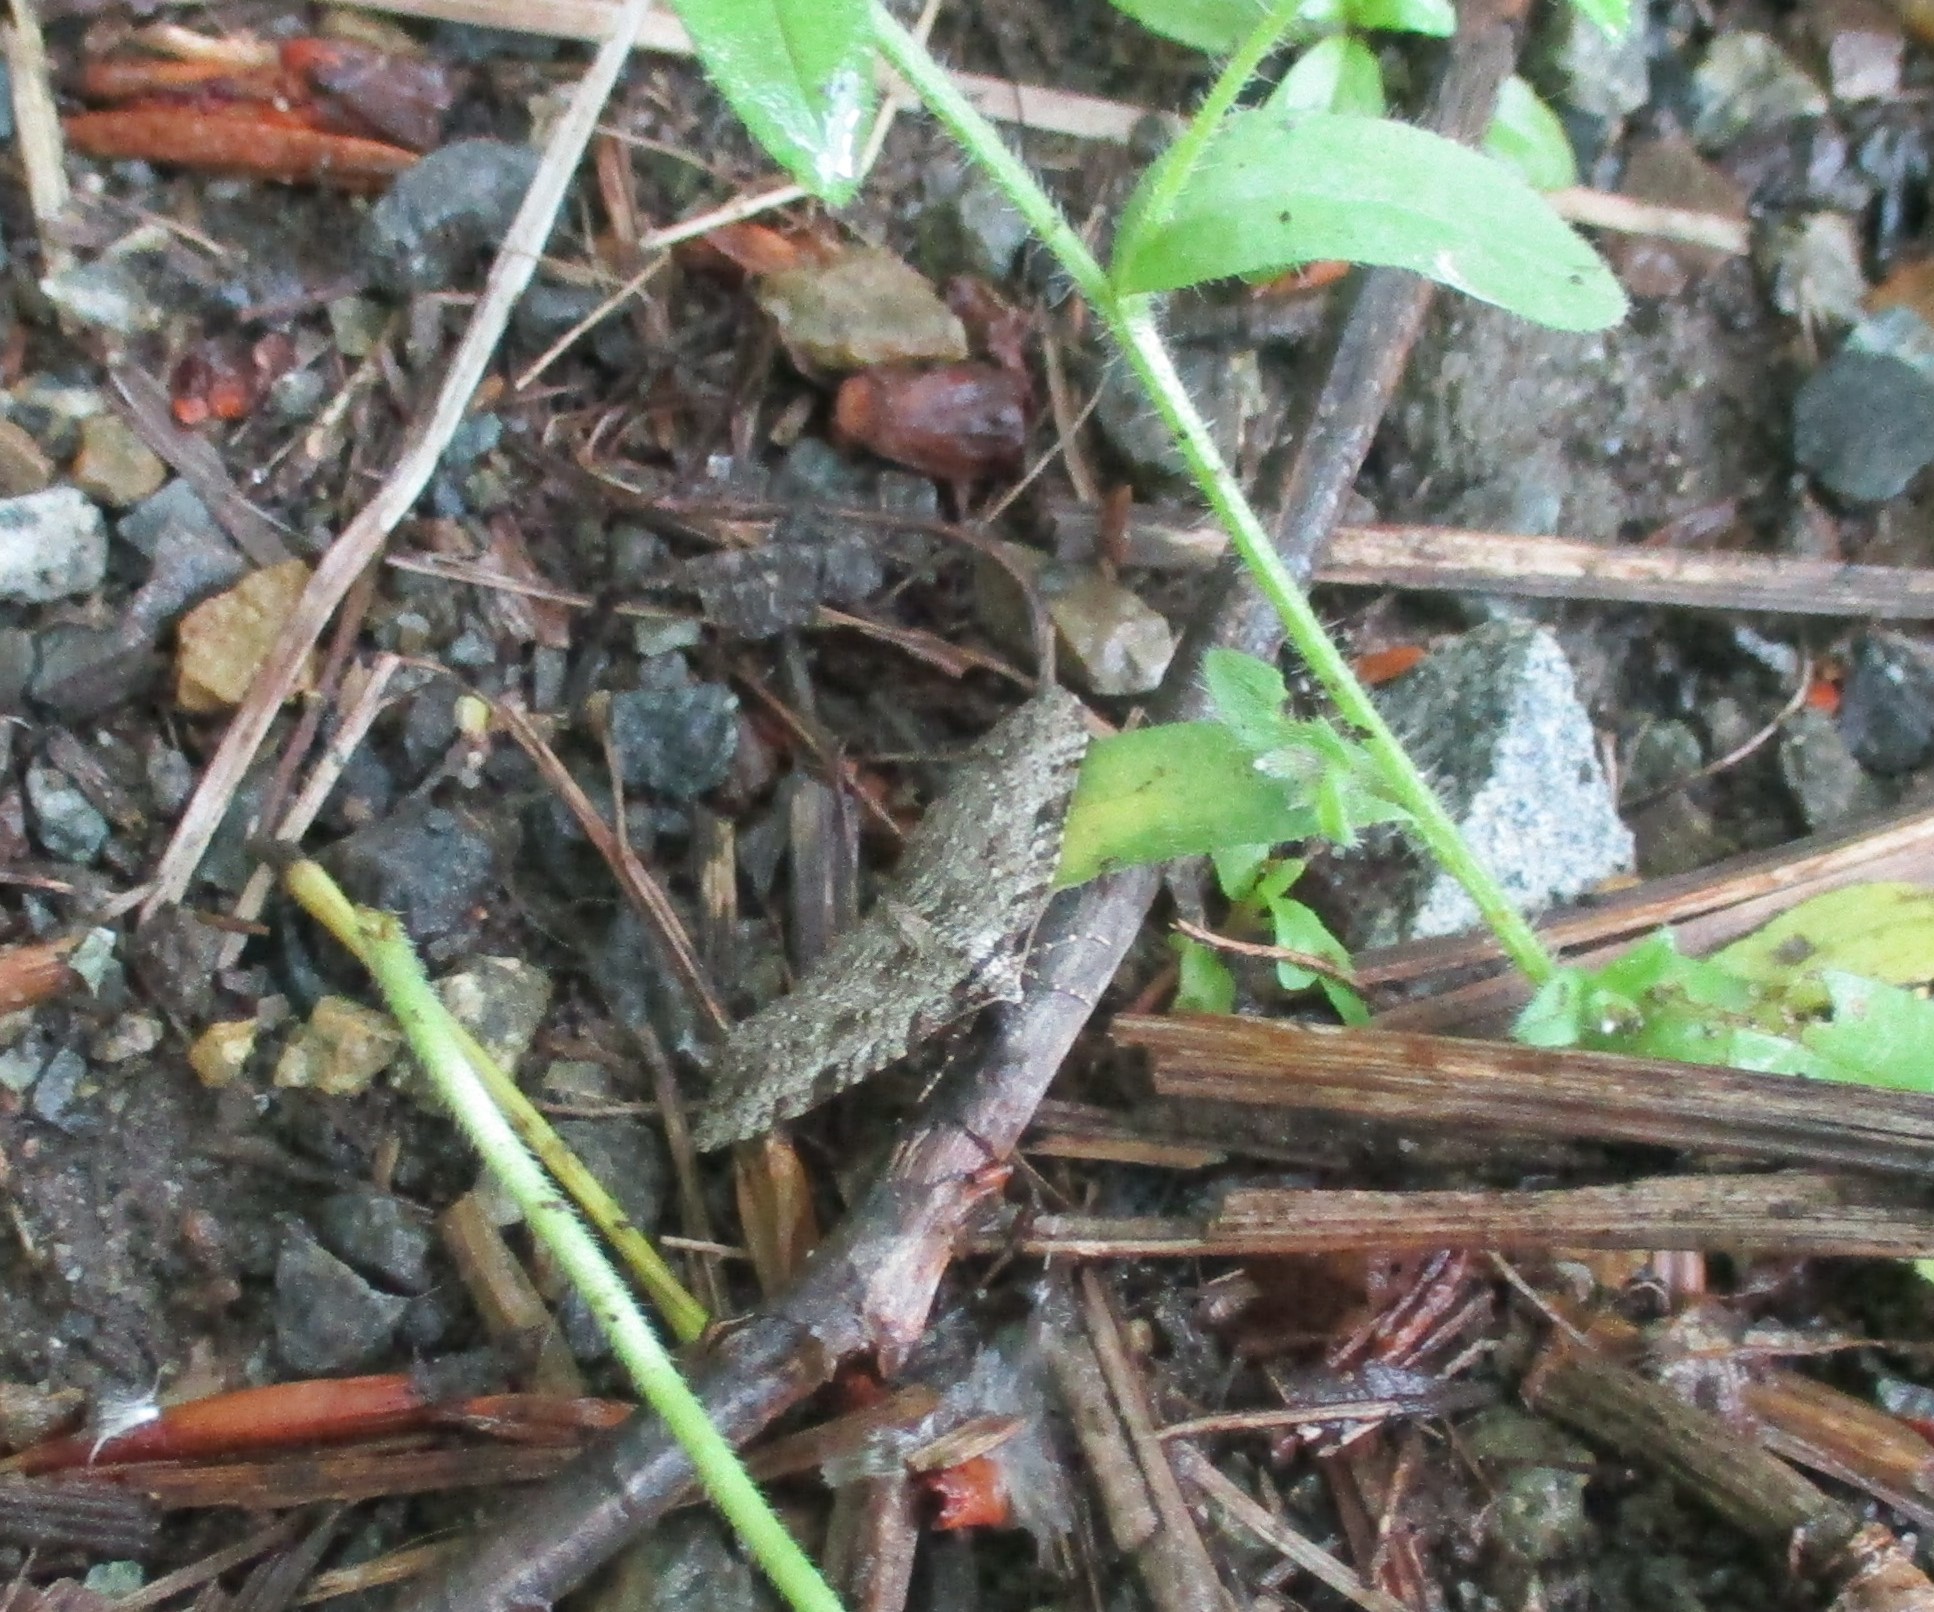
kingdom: Animalia
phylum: Arthropoda
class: Insecta
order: Lepidoptera
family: Geometridae
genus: Perizoma
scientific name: Perizoma curvilinea
